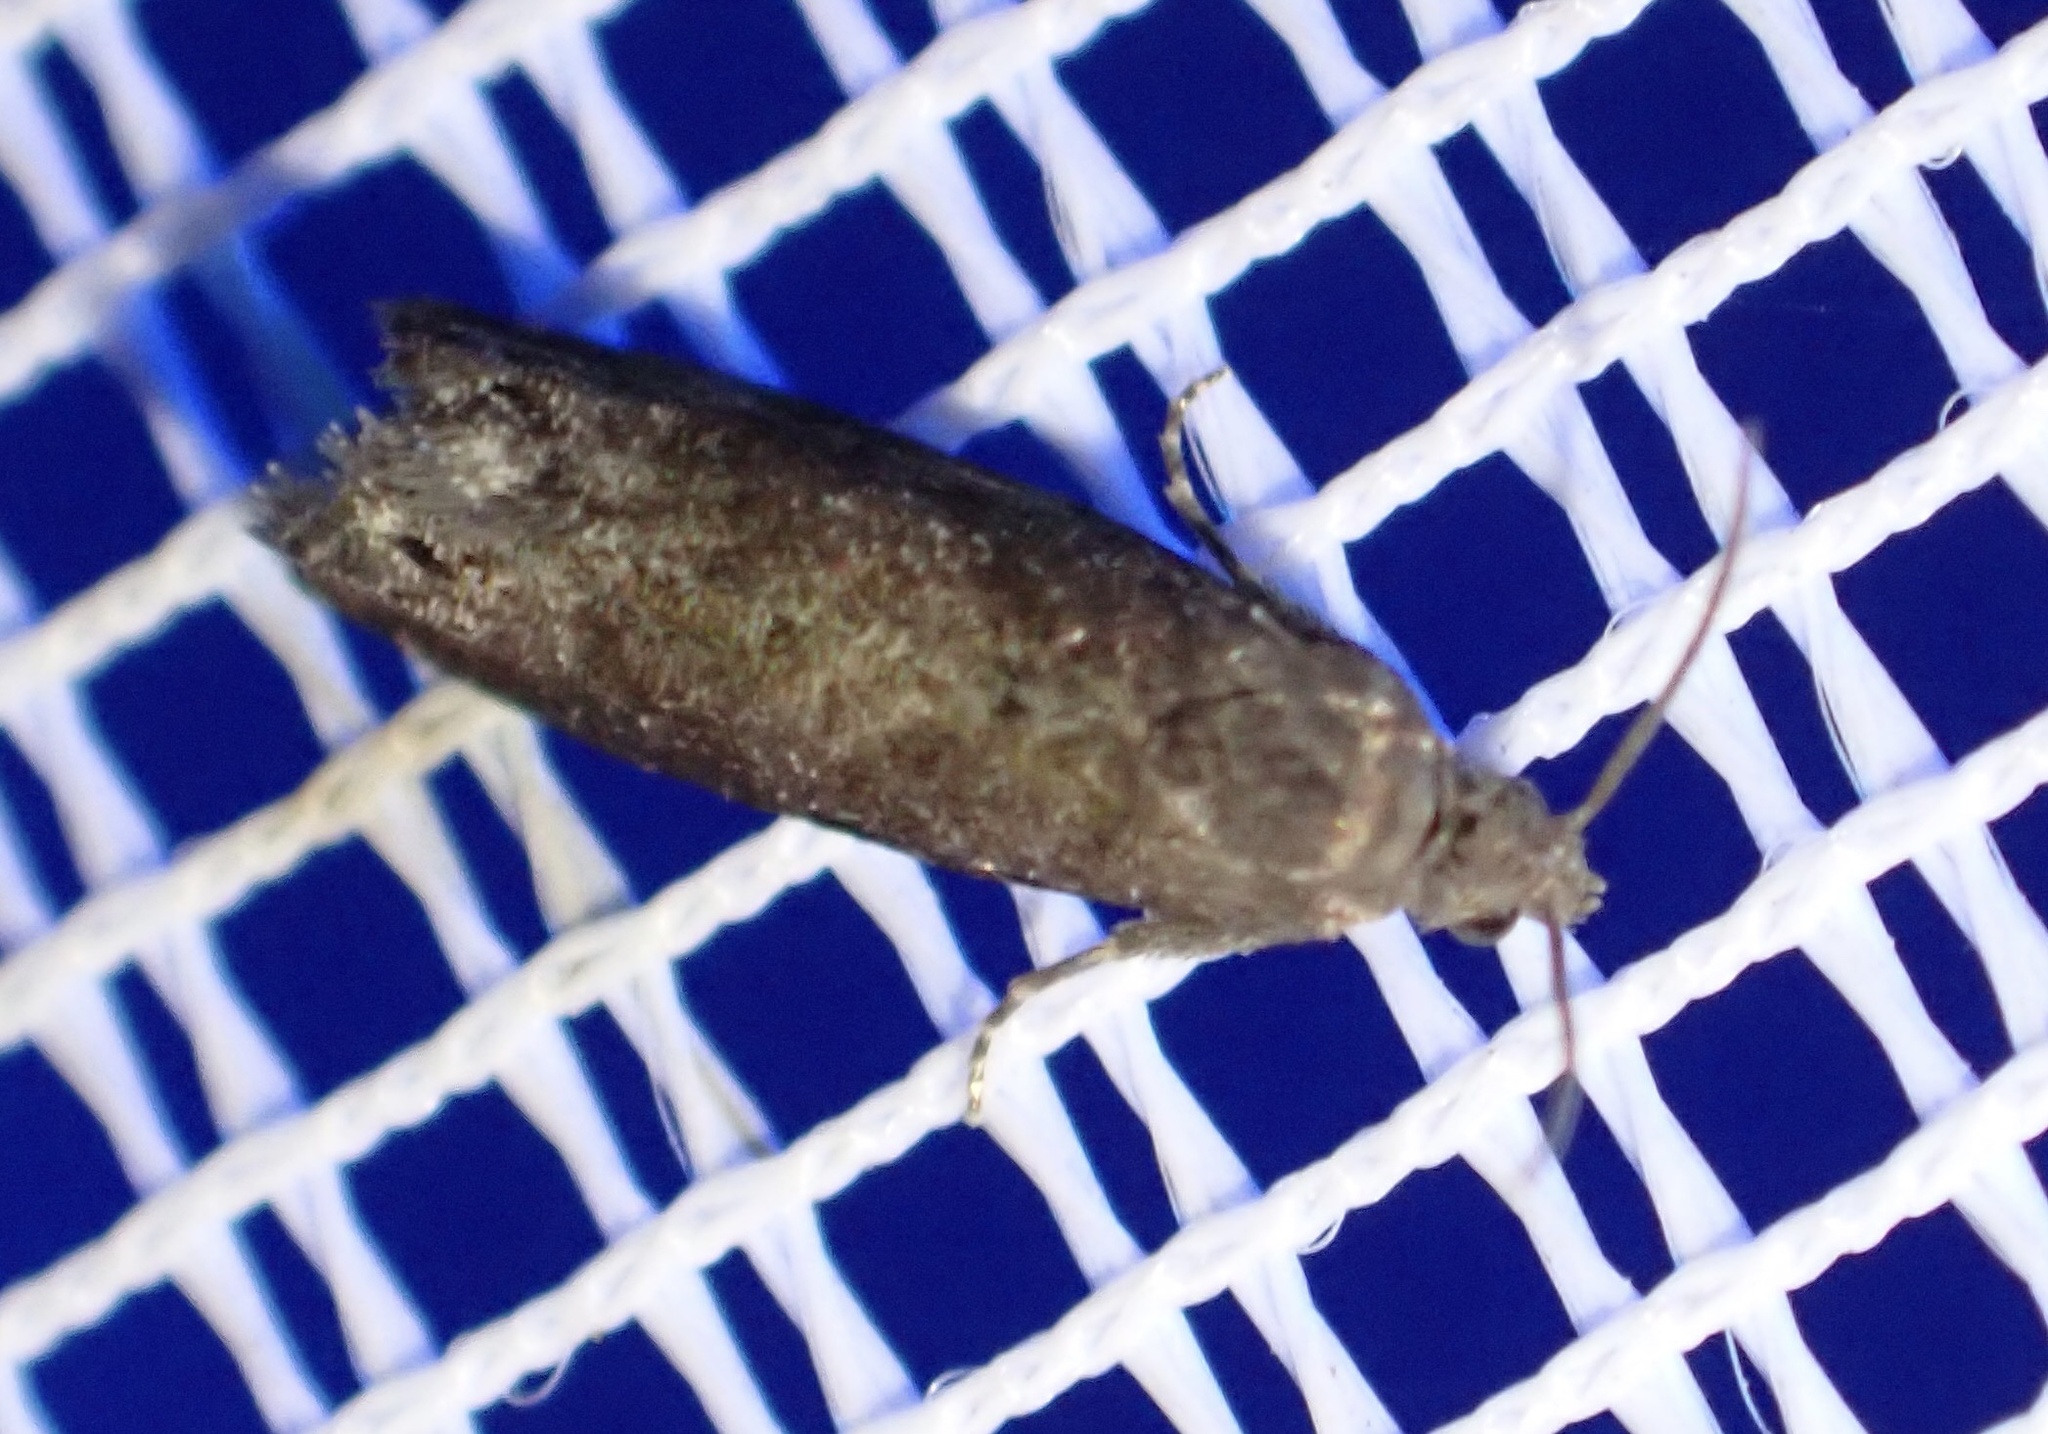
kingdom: Animalia
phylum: Arthropoda
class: Insecta
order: Lepidoptera
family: Noctuidae
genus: Aspila
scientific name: Aspila
